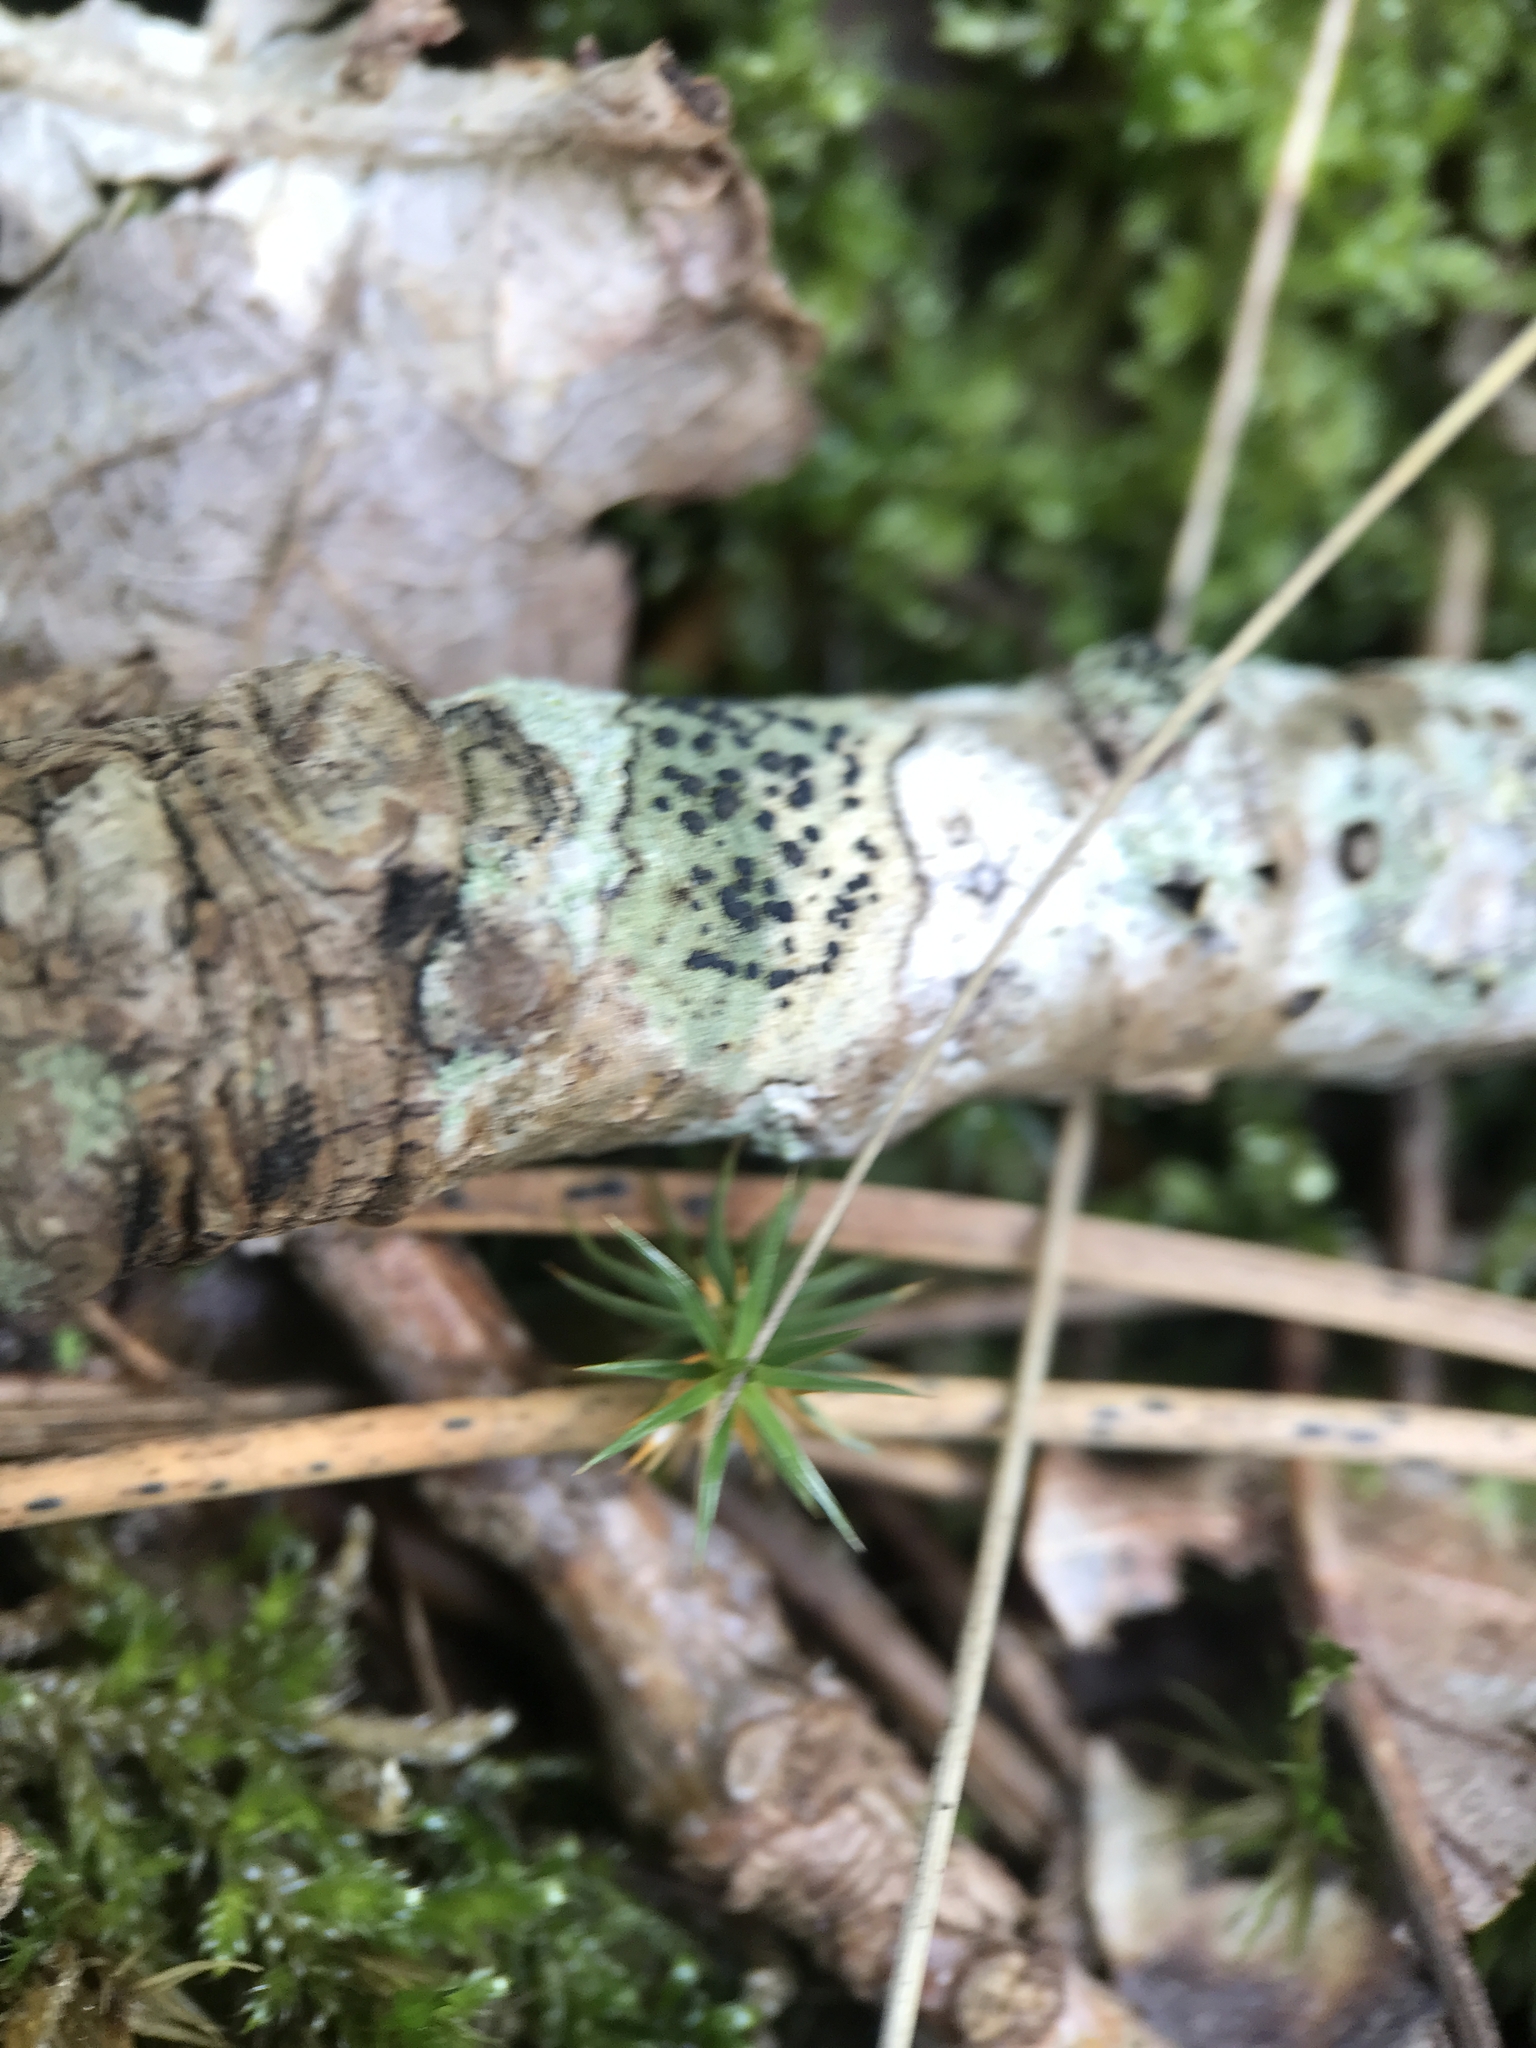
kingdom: Fungi
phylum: Ascomycota
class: Lecanoromycetes
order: Lecanorales
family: Lecanoraceae
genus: Lecidella
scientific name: Lecidella elaeochroma
